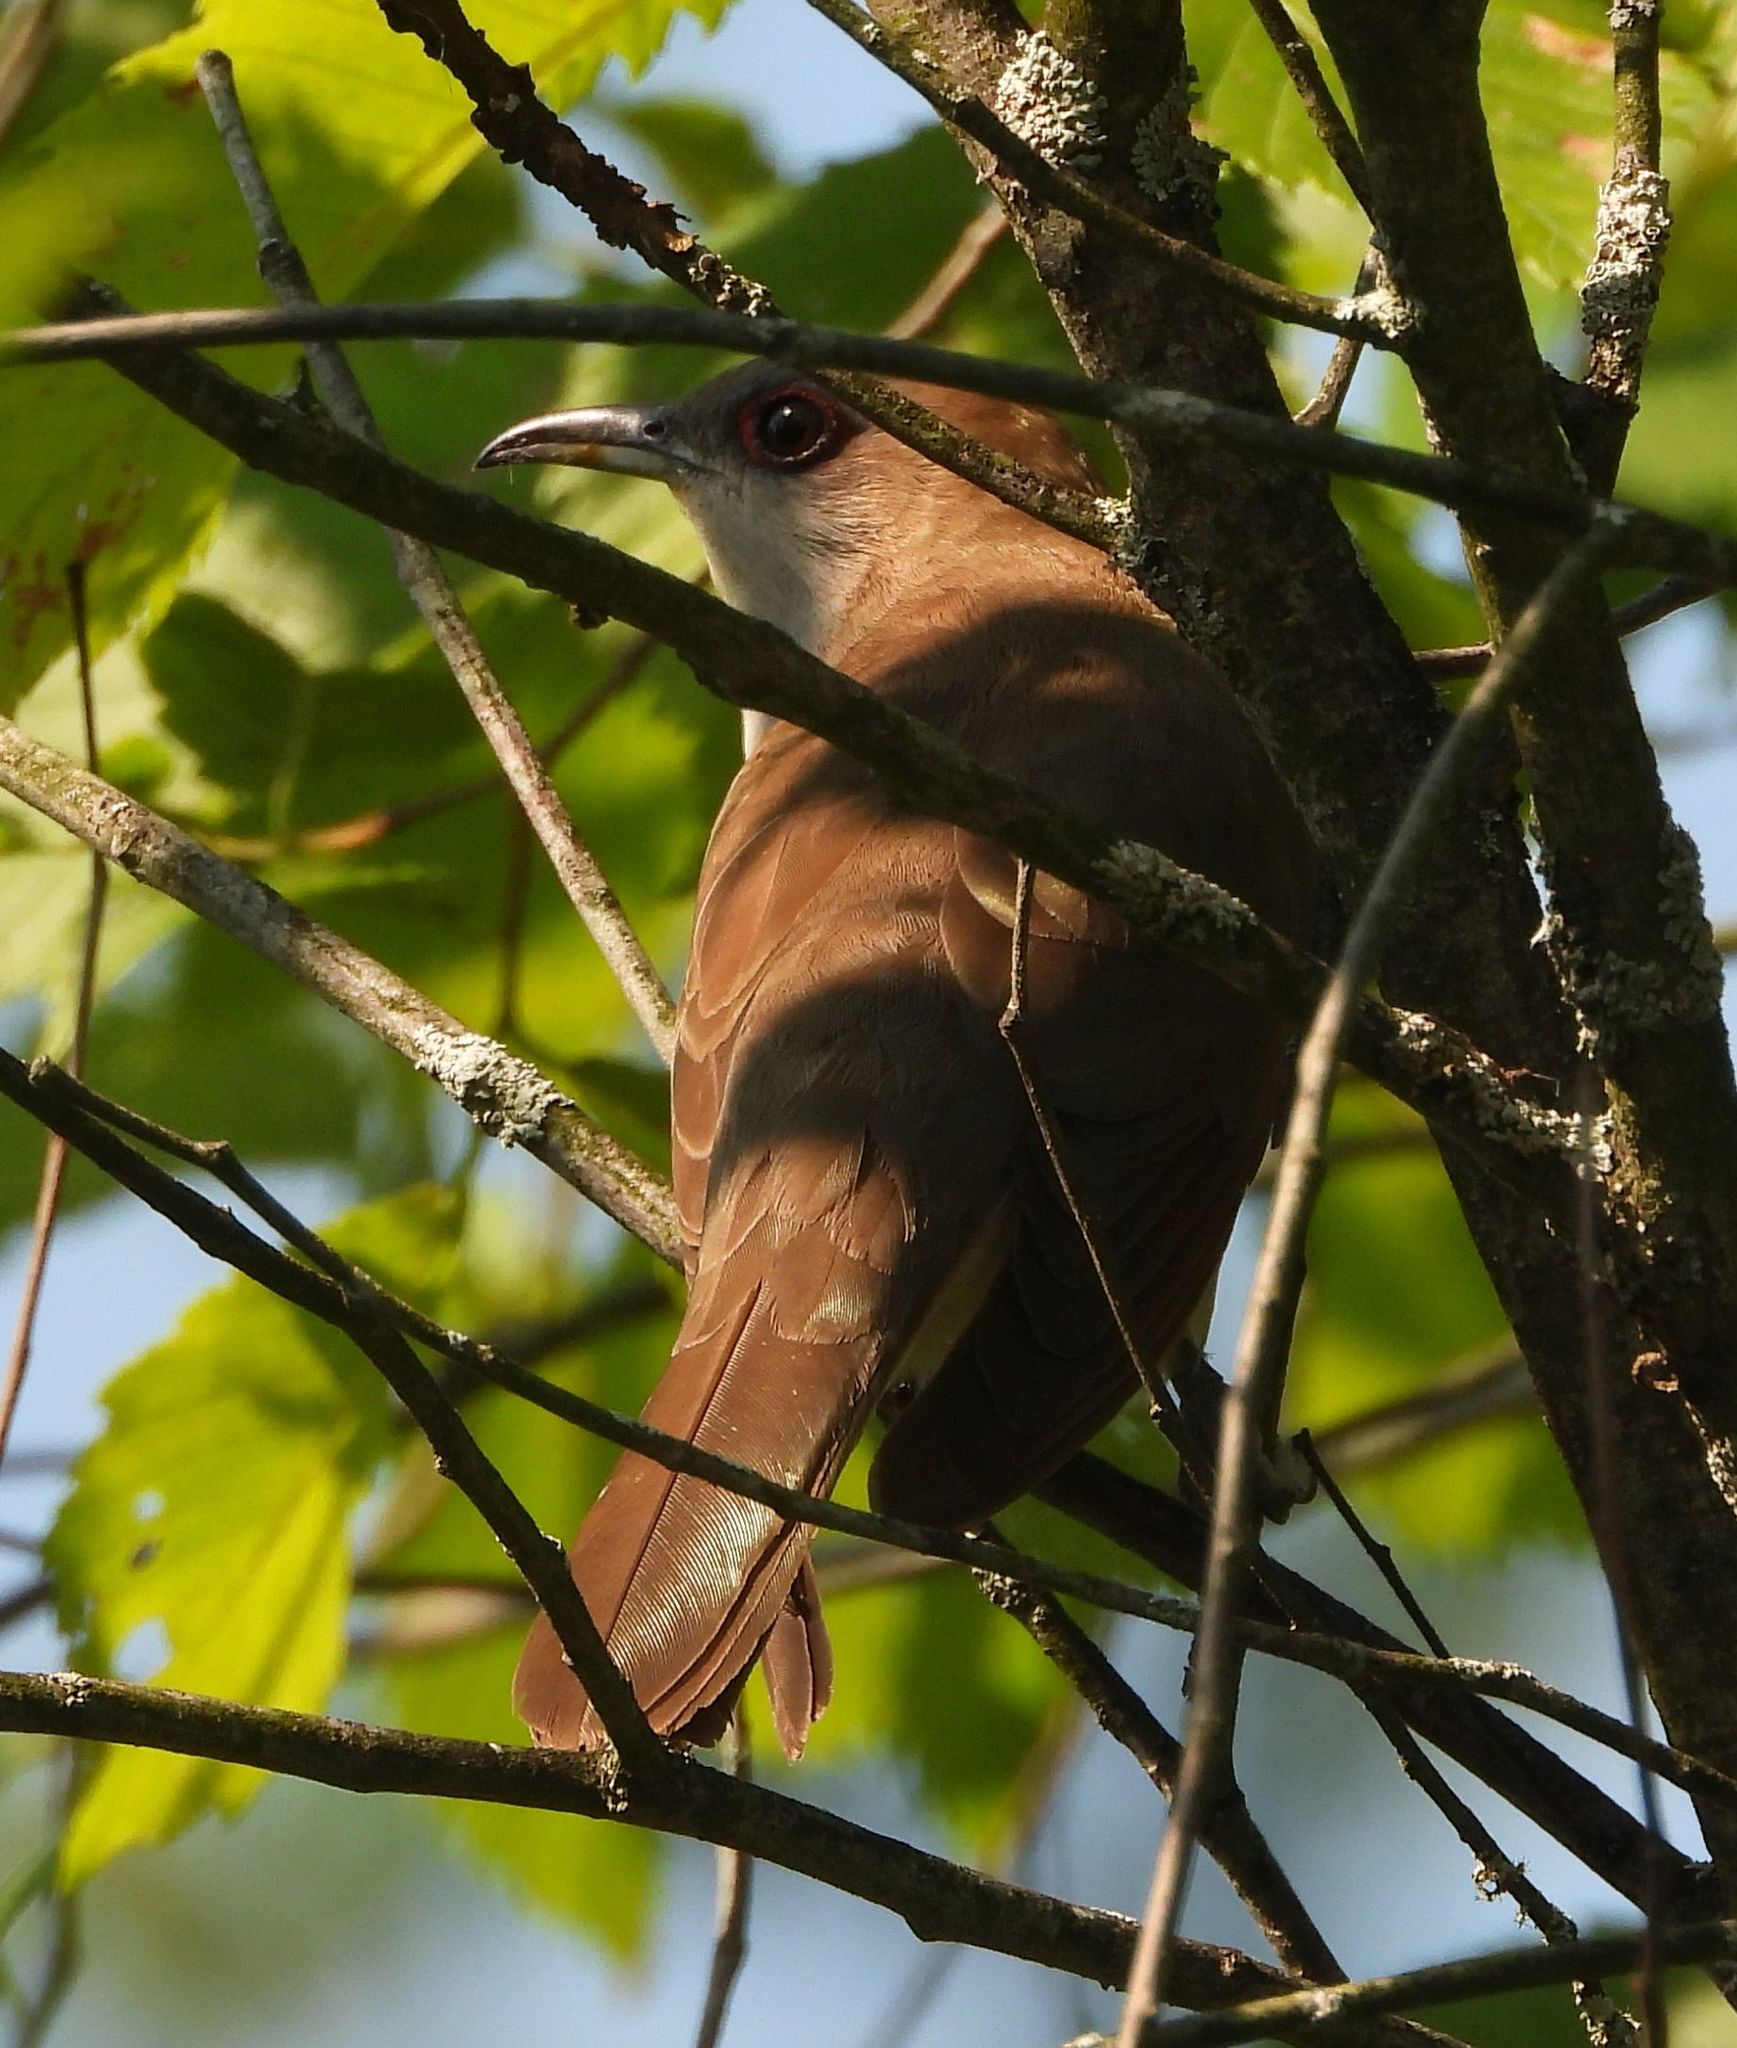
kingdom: Animalia
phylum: Chordata
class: Aves
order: Cuculiformes
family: Cuculidae
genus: Coccyzus
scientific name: Coccyzus erythropthalmus
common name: Black-billed cuckoo
